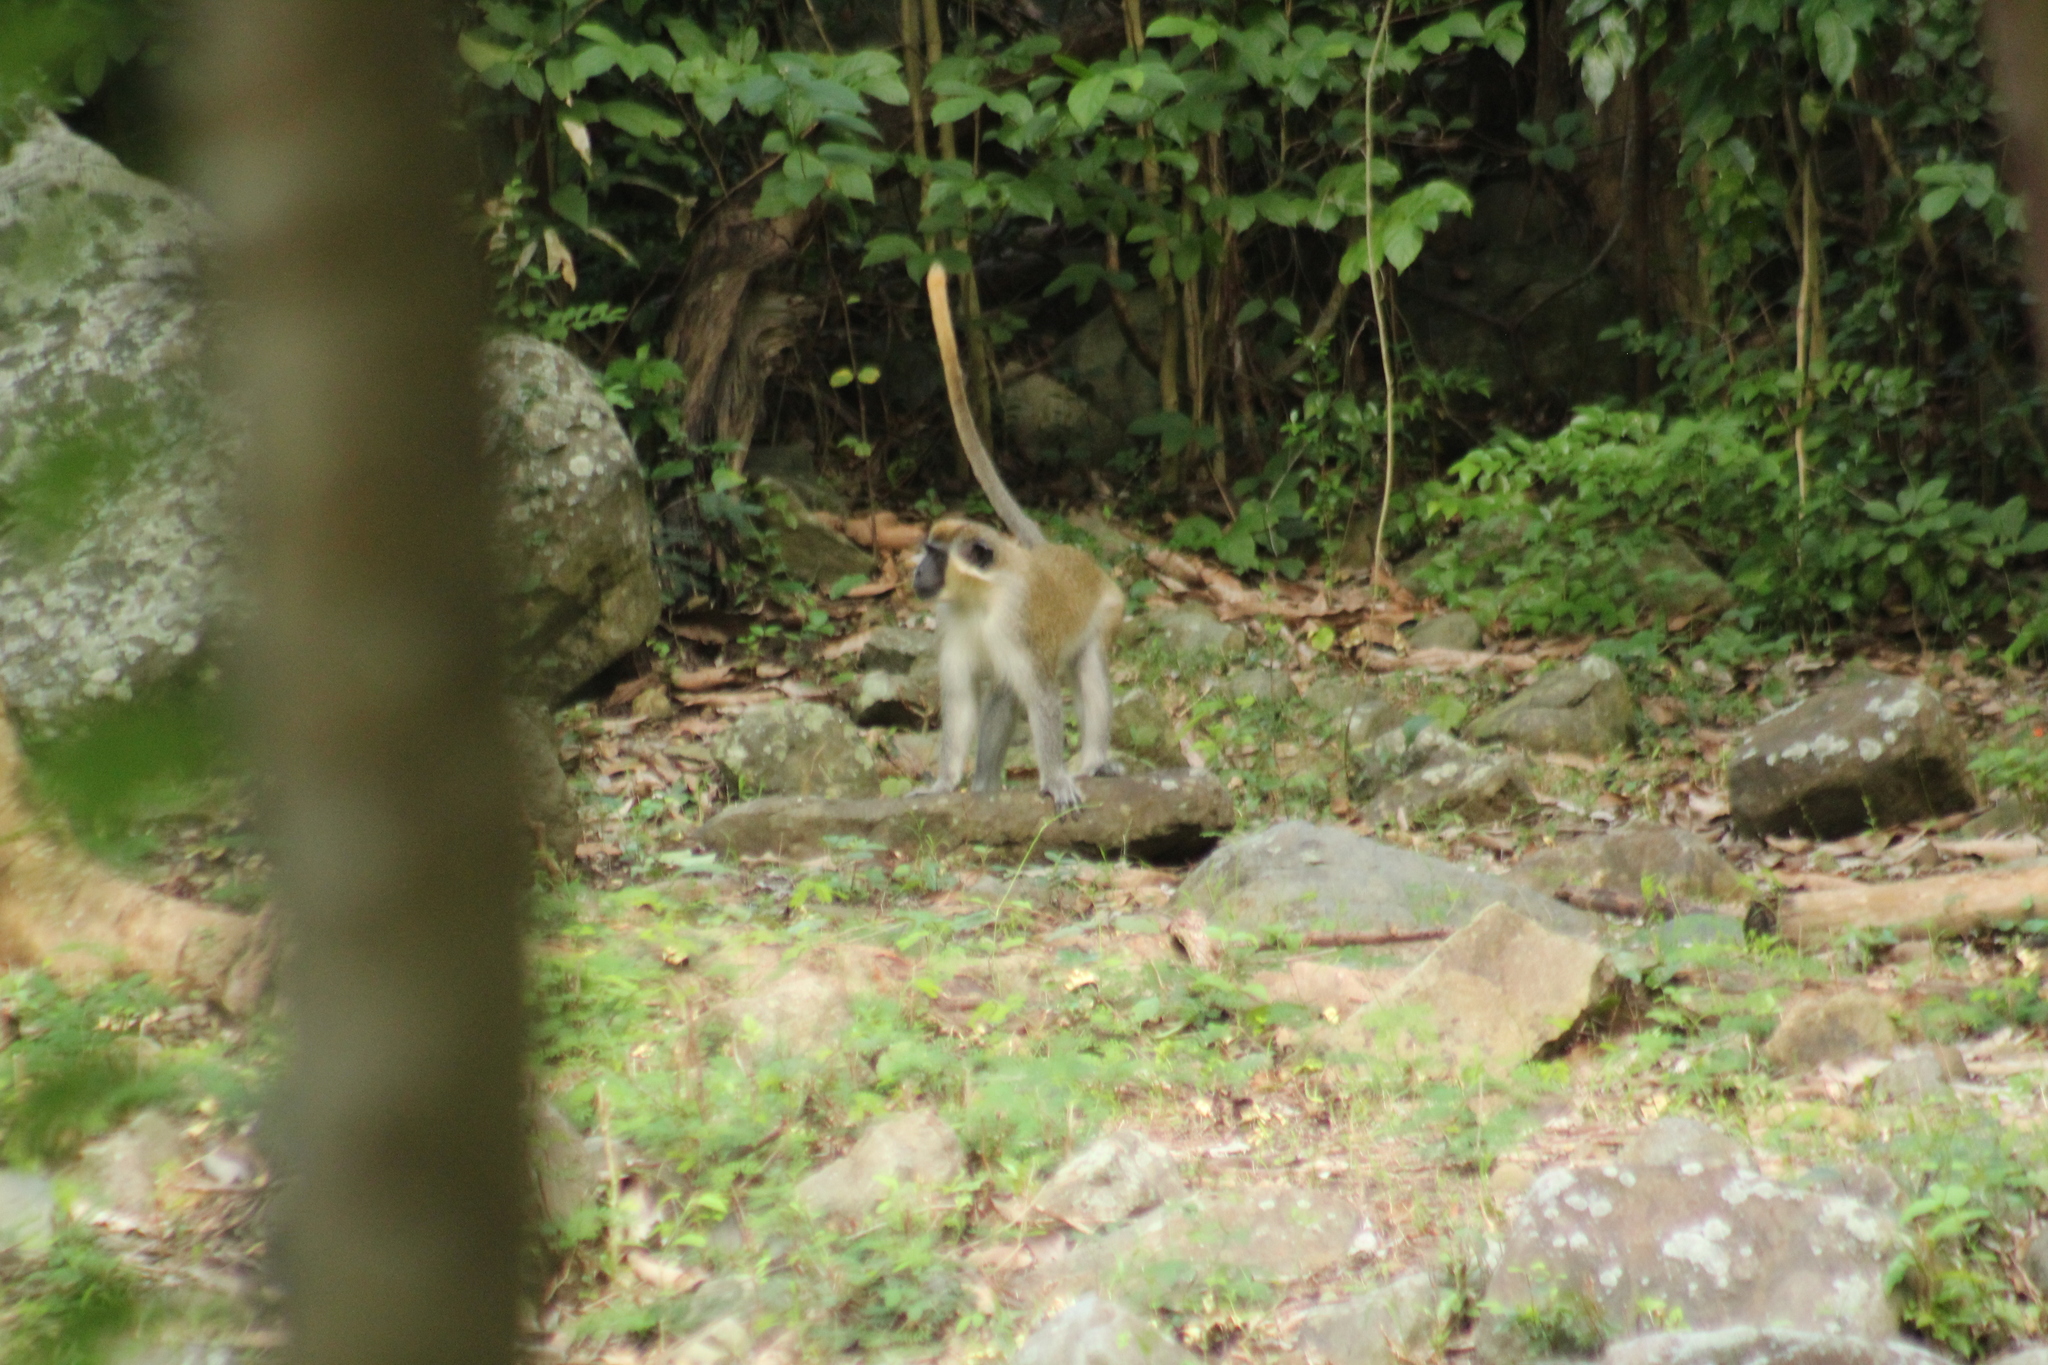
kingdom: Animalia
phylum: Chordata
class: Mammalia
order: Primates
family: Cercopithecidae
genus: Chlorocebus
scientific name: Chlorocebus sabaeus
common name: Green monkey
